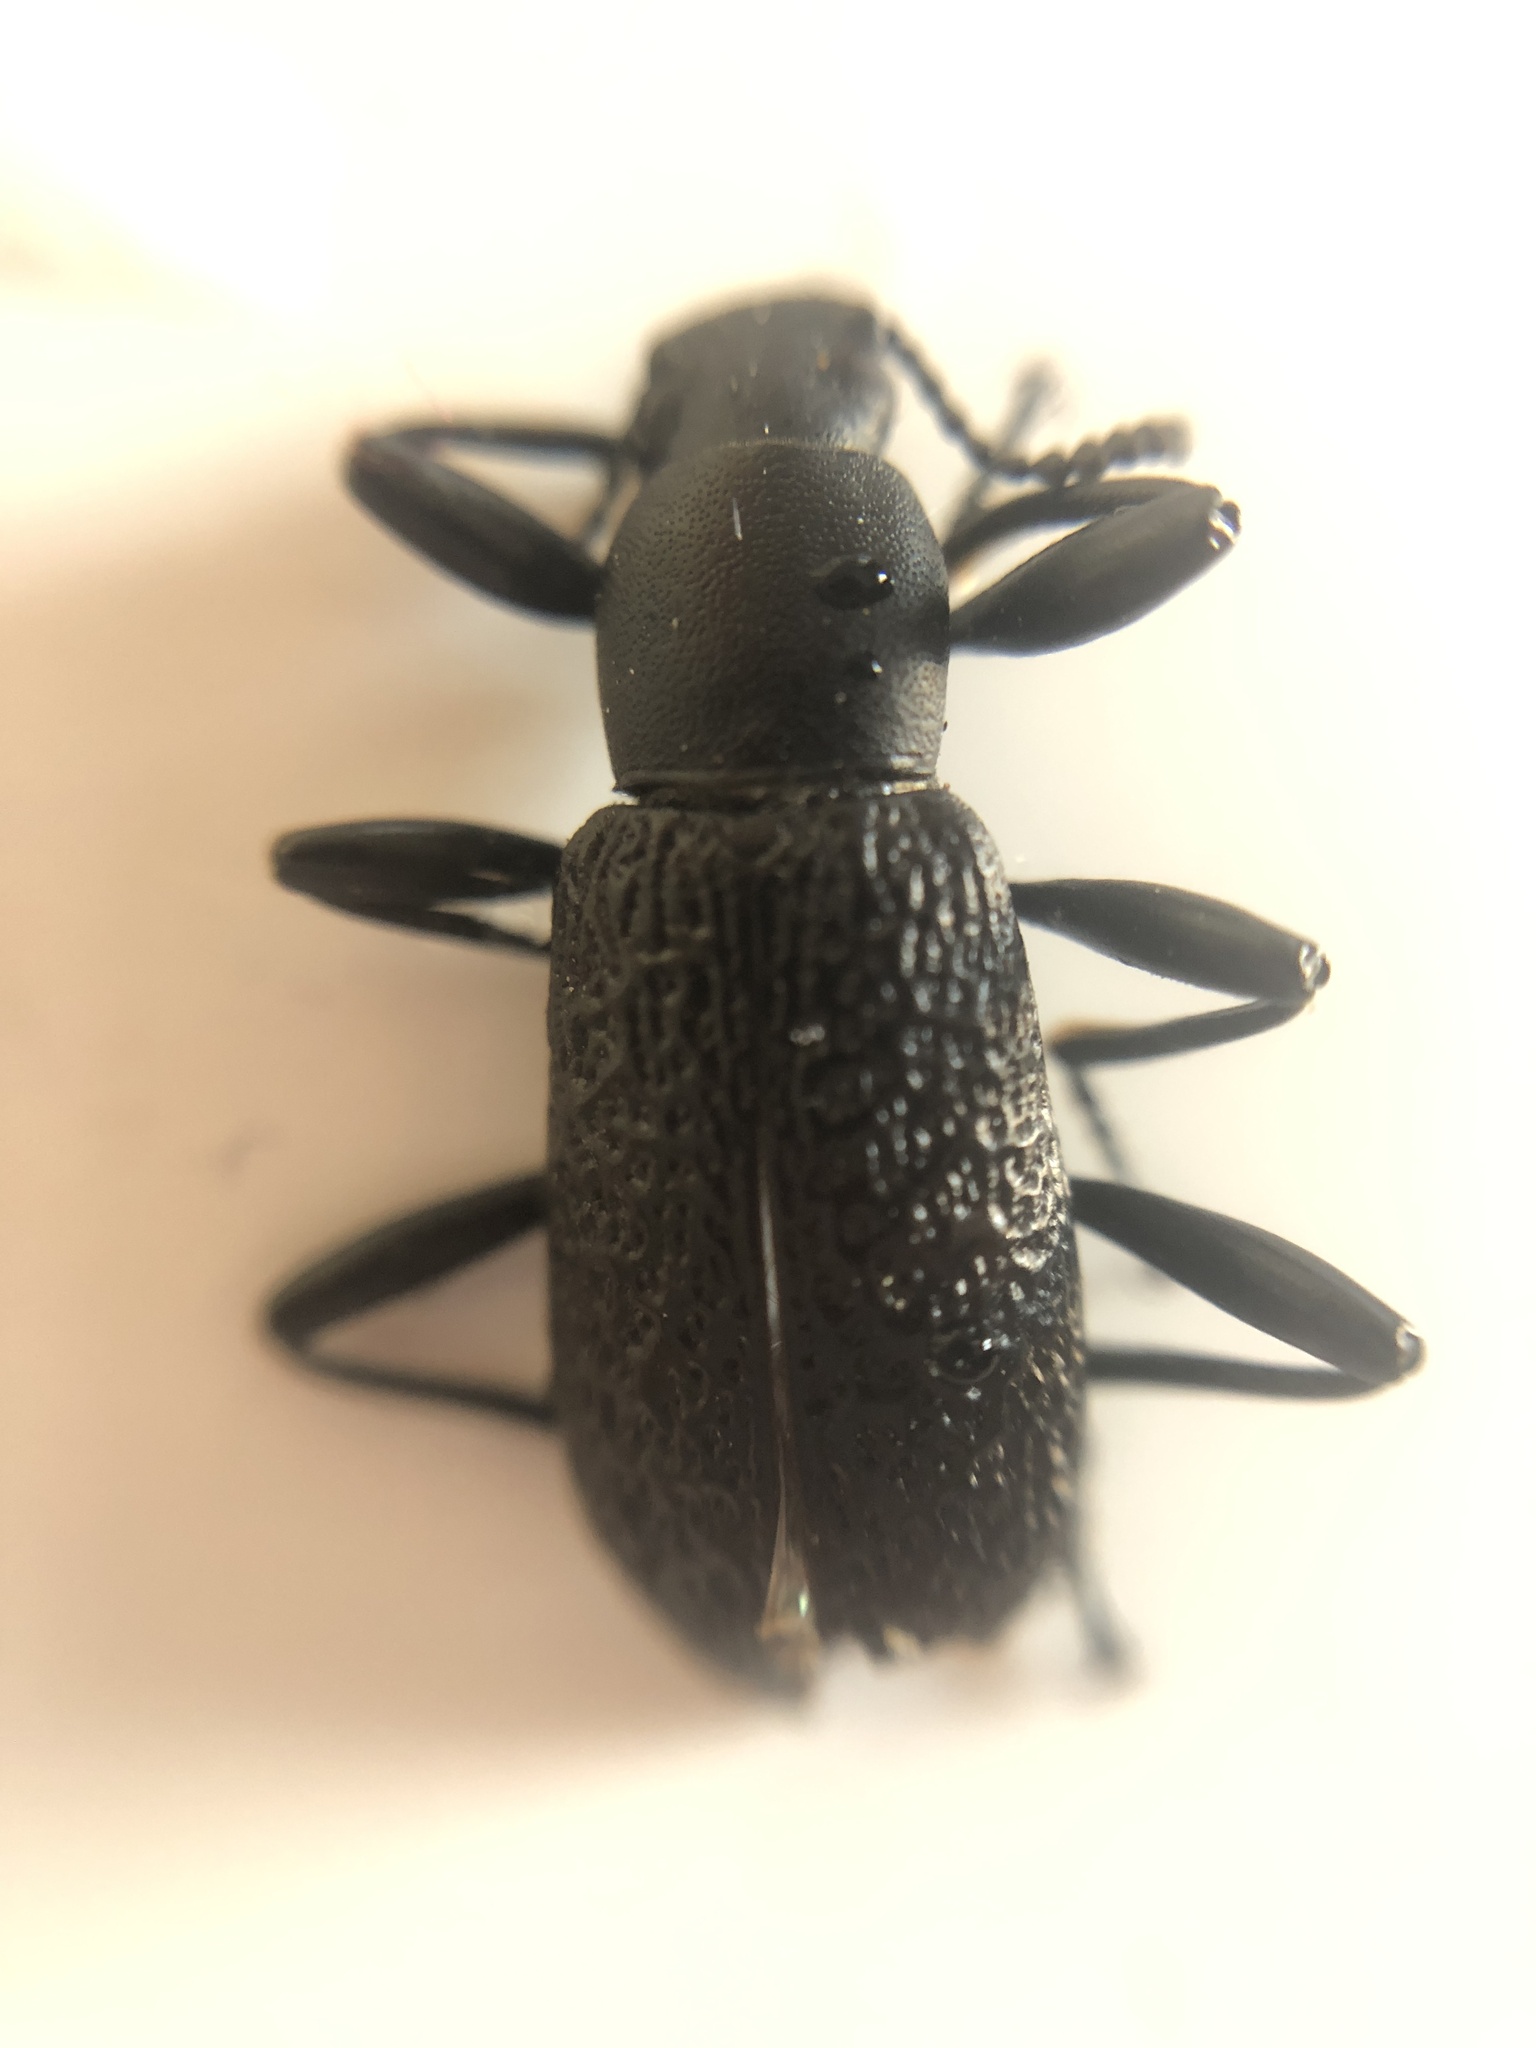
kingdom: Animalia
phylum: Arthropoda
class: Insecta
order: Coleoptera
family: Tenebrionidae
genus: Upis
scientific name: Upis ceramboides
